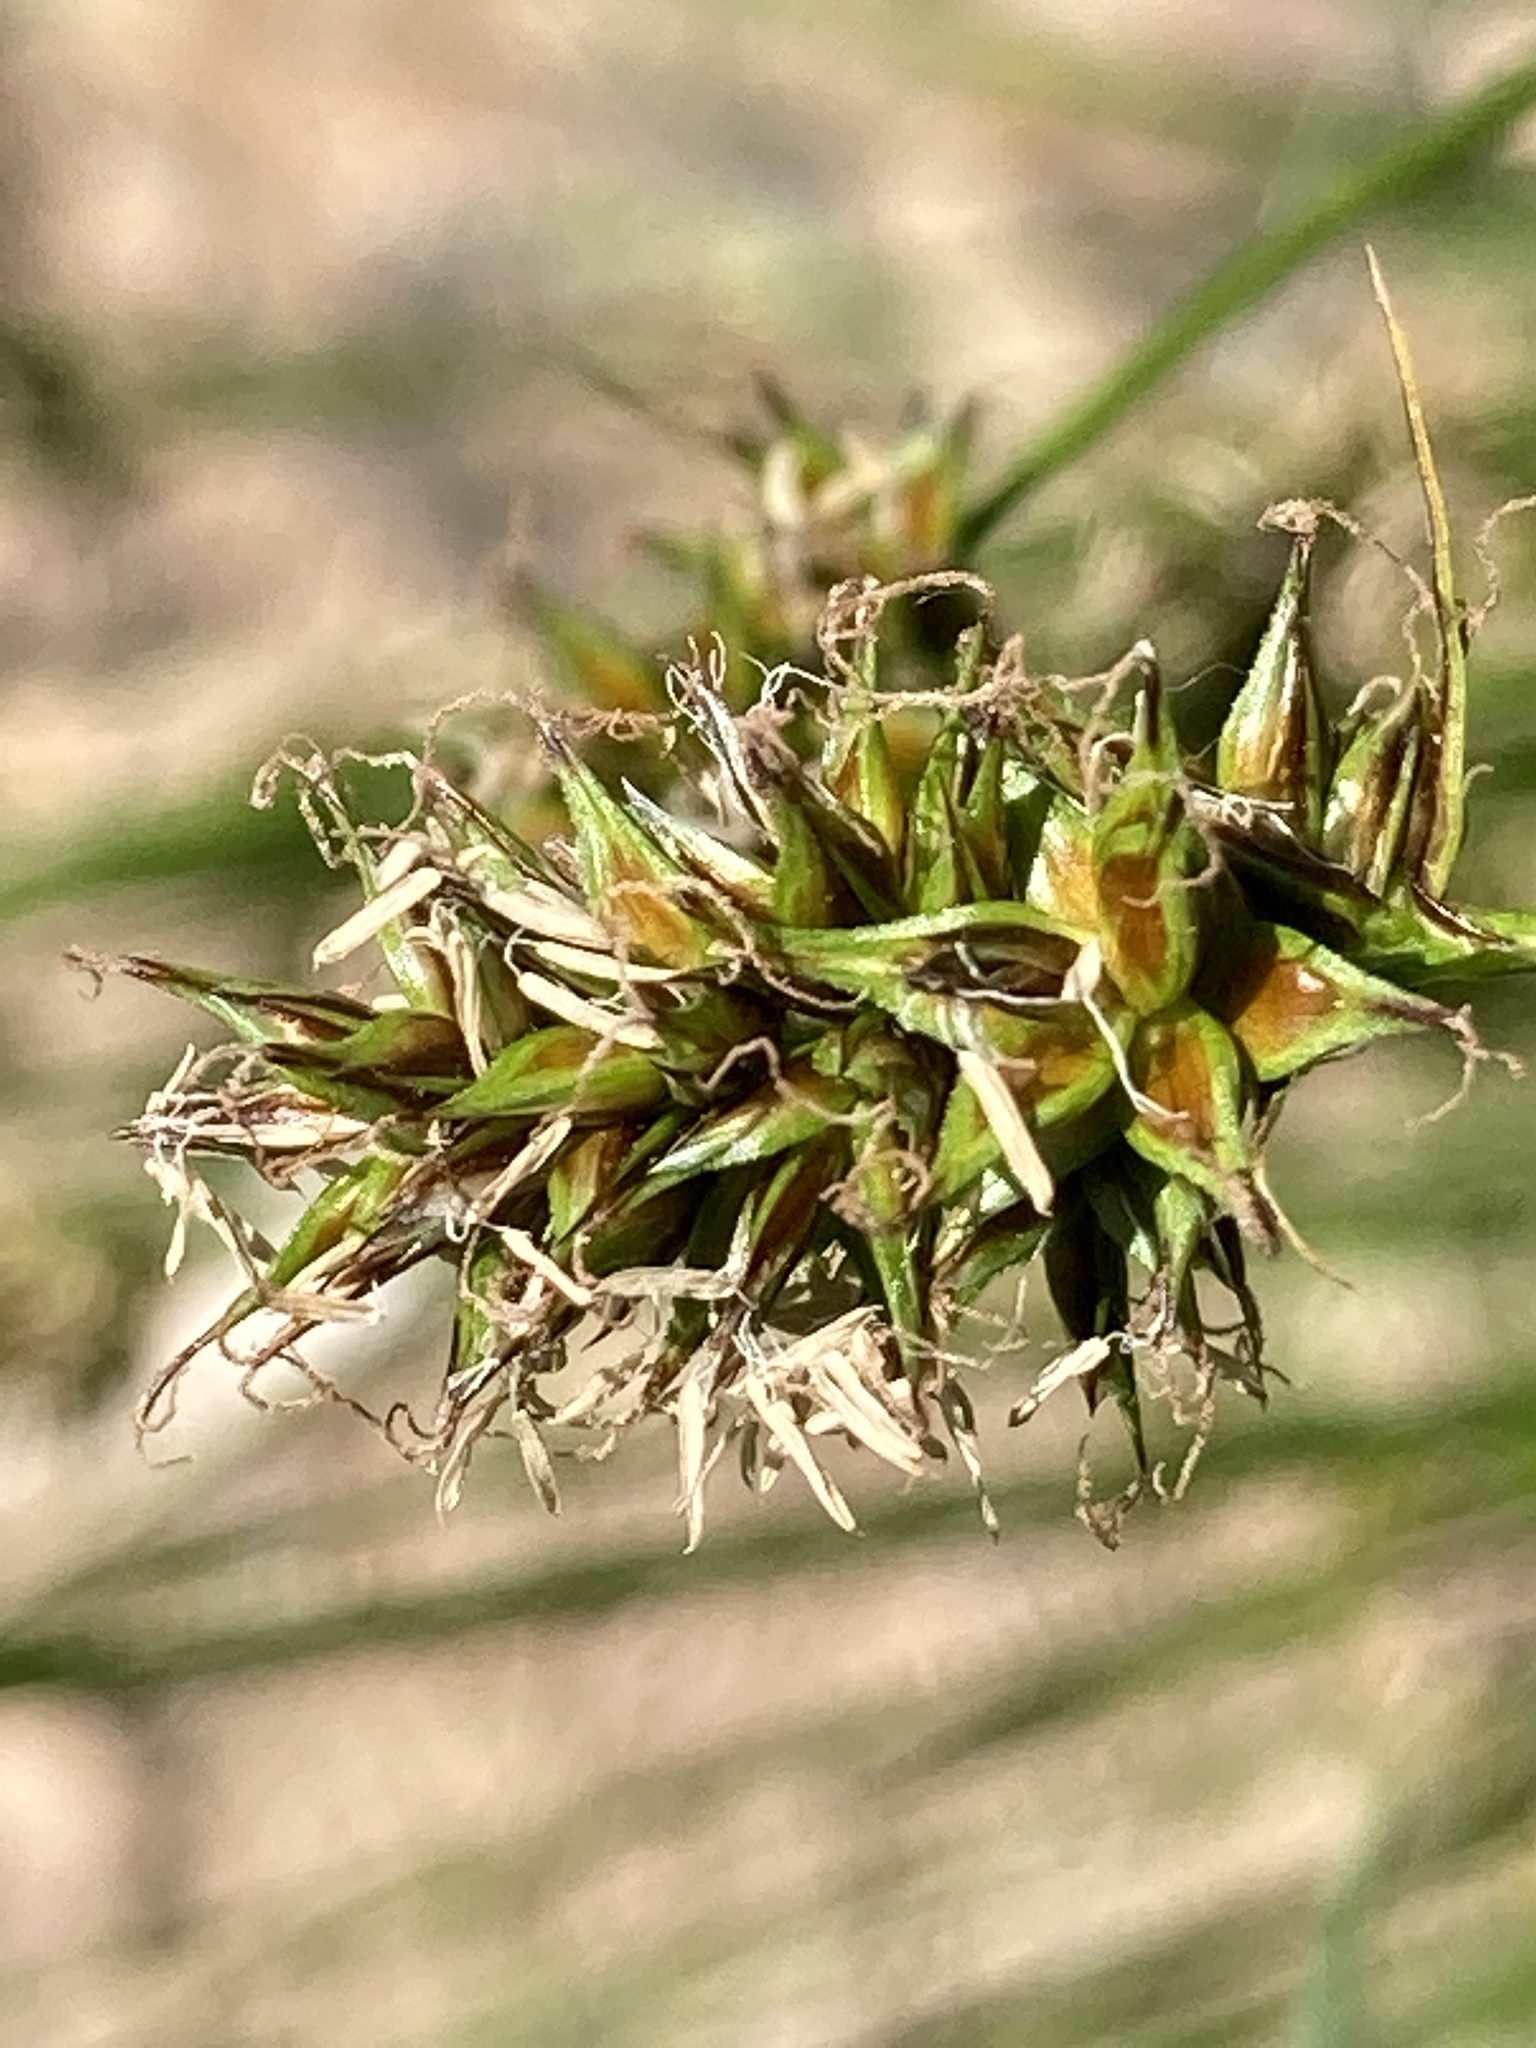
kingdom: Plantae
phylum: Tracheophyta
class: Liliopsida
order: Poales
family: Cyperaceae
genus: Carex
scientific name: Carex hoodii
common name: Hood's sedge
